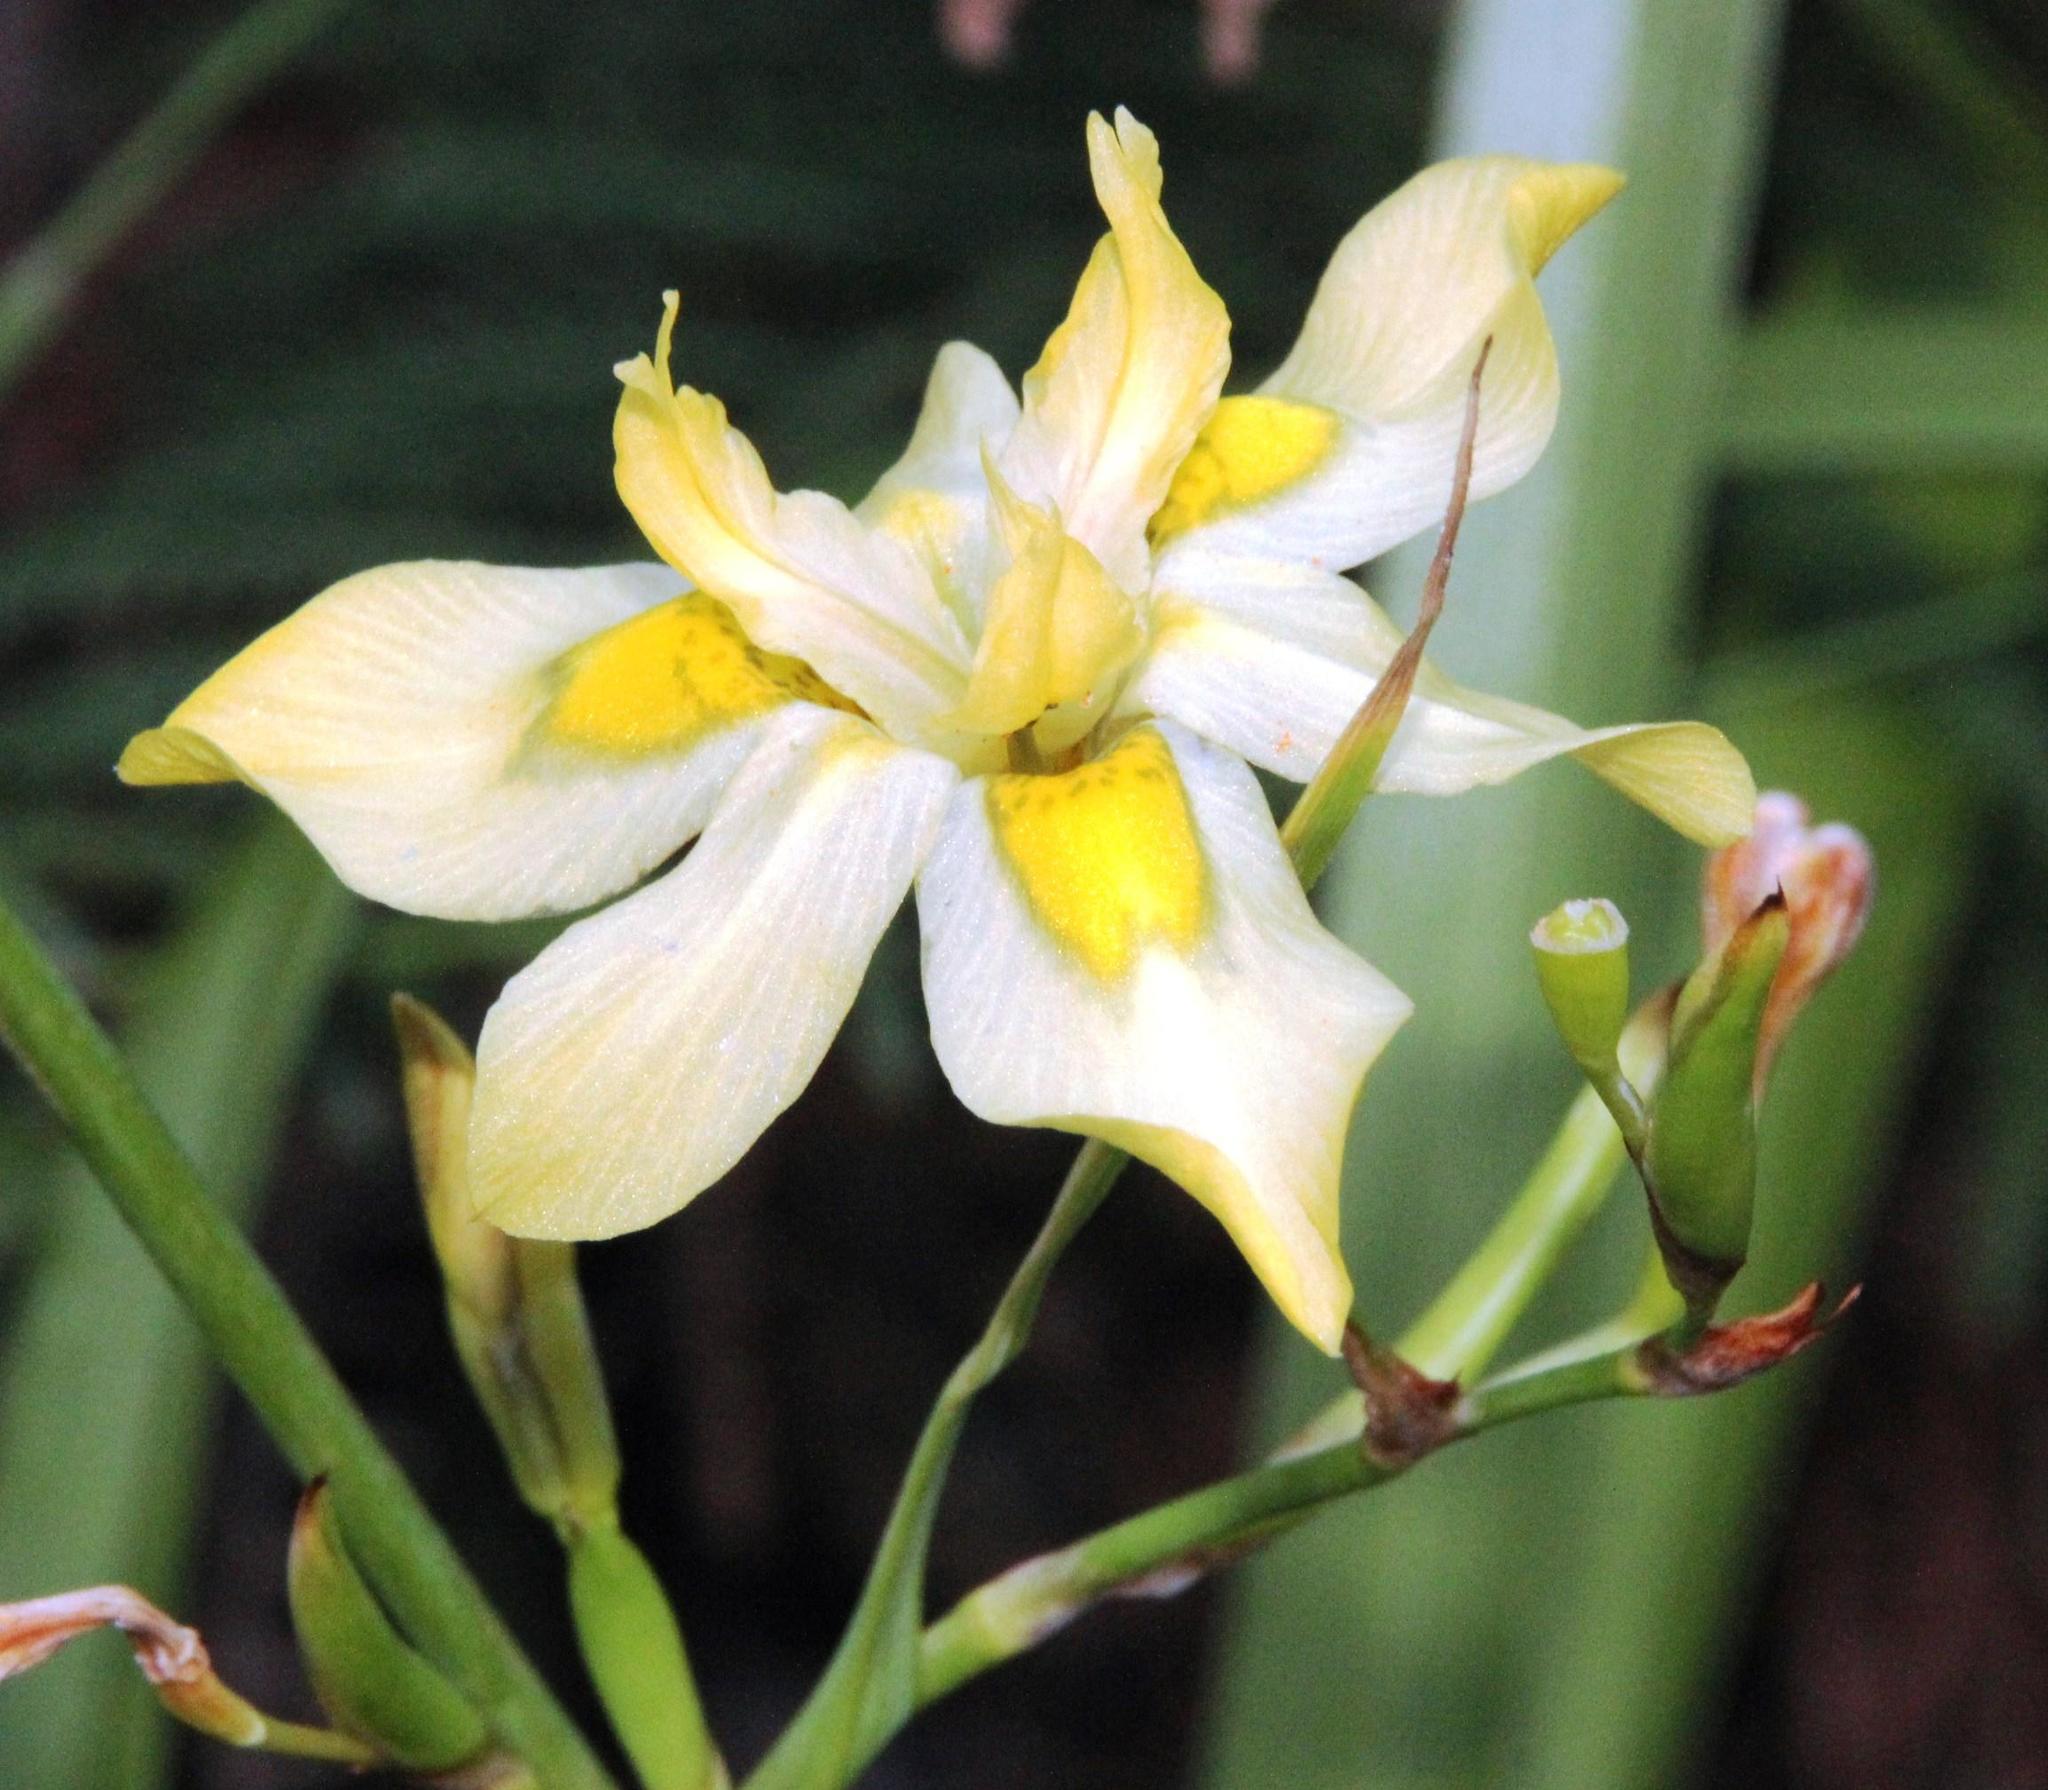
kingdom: Plantae
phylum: Tracheophyta
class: Liliopsida
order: Asparagales
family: Iridaceae
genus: Moraea
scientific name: Moraea ramosissima
